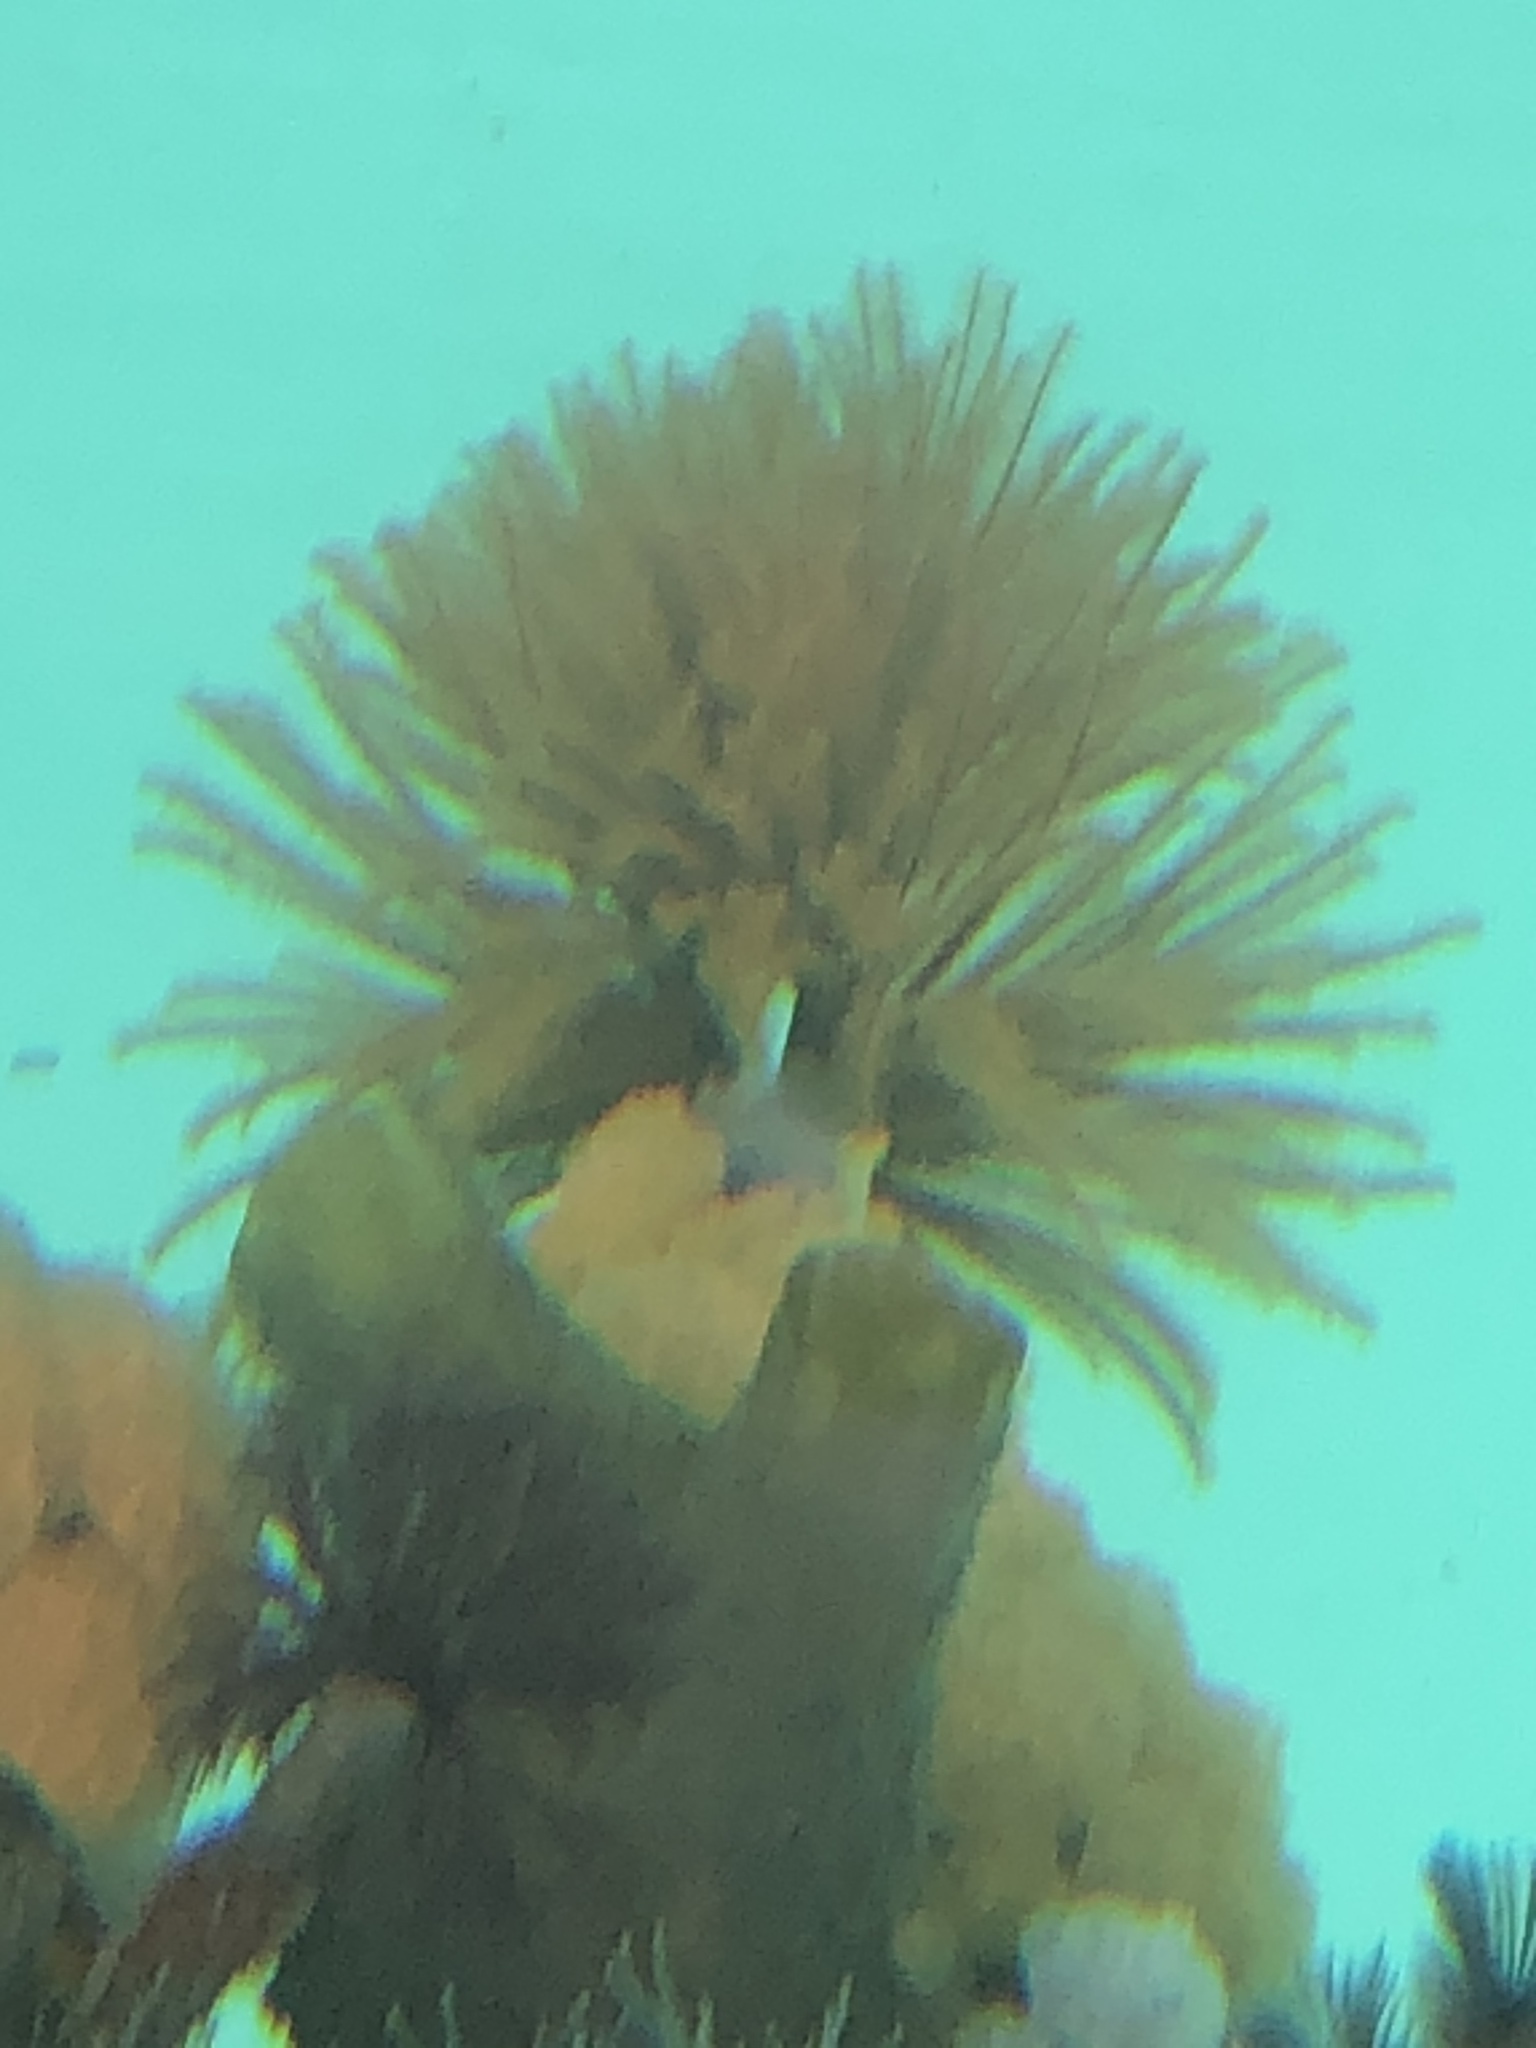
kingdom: Animalia
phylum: Annelida
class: Polychaeta
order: Sabellida
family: Sabellidae
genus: Eudistylia
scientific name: Eudistylia polymorpha
